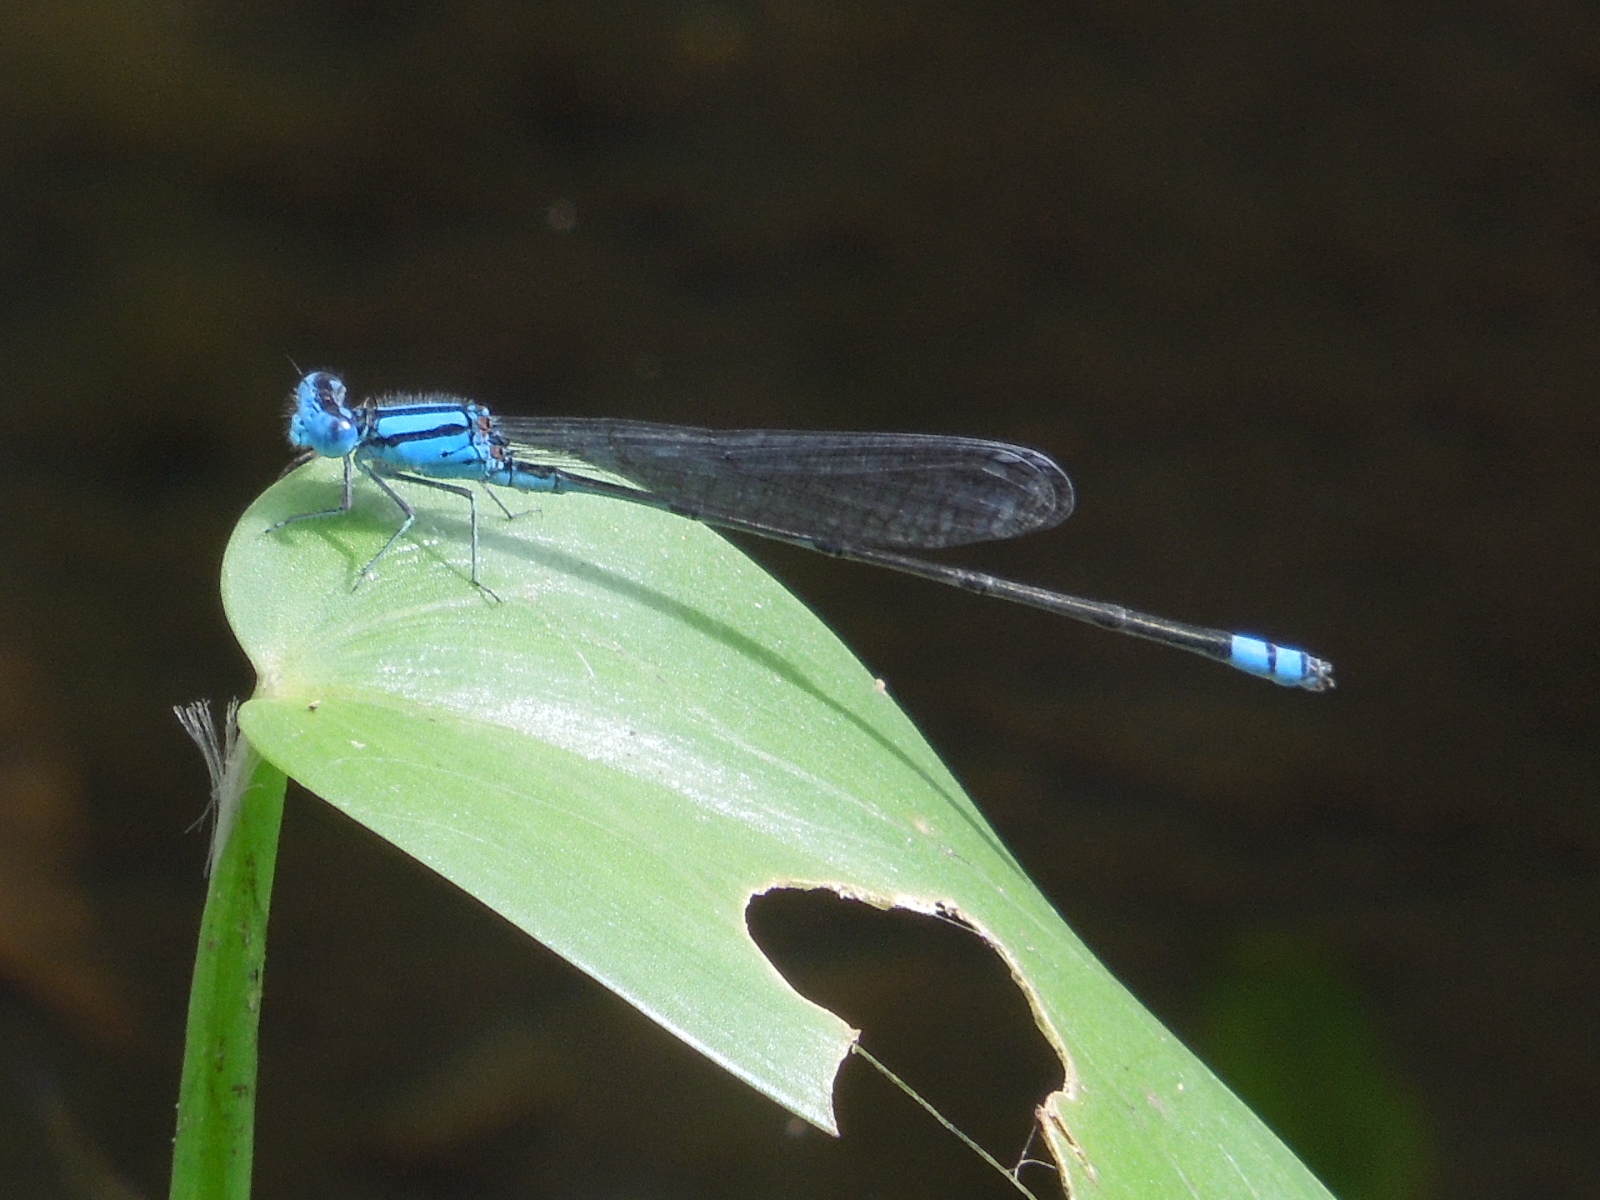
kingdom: Animalia
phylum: Arthropoda
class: Insecta
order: Odonata
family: Coenagrionidae
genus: Pseudagrion
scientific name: Pseudagrion microcephalum
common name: Blue riverdamsel
